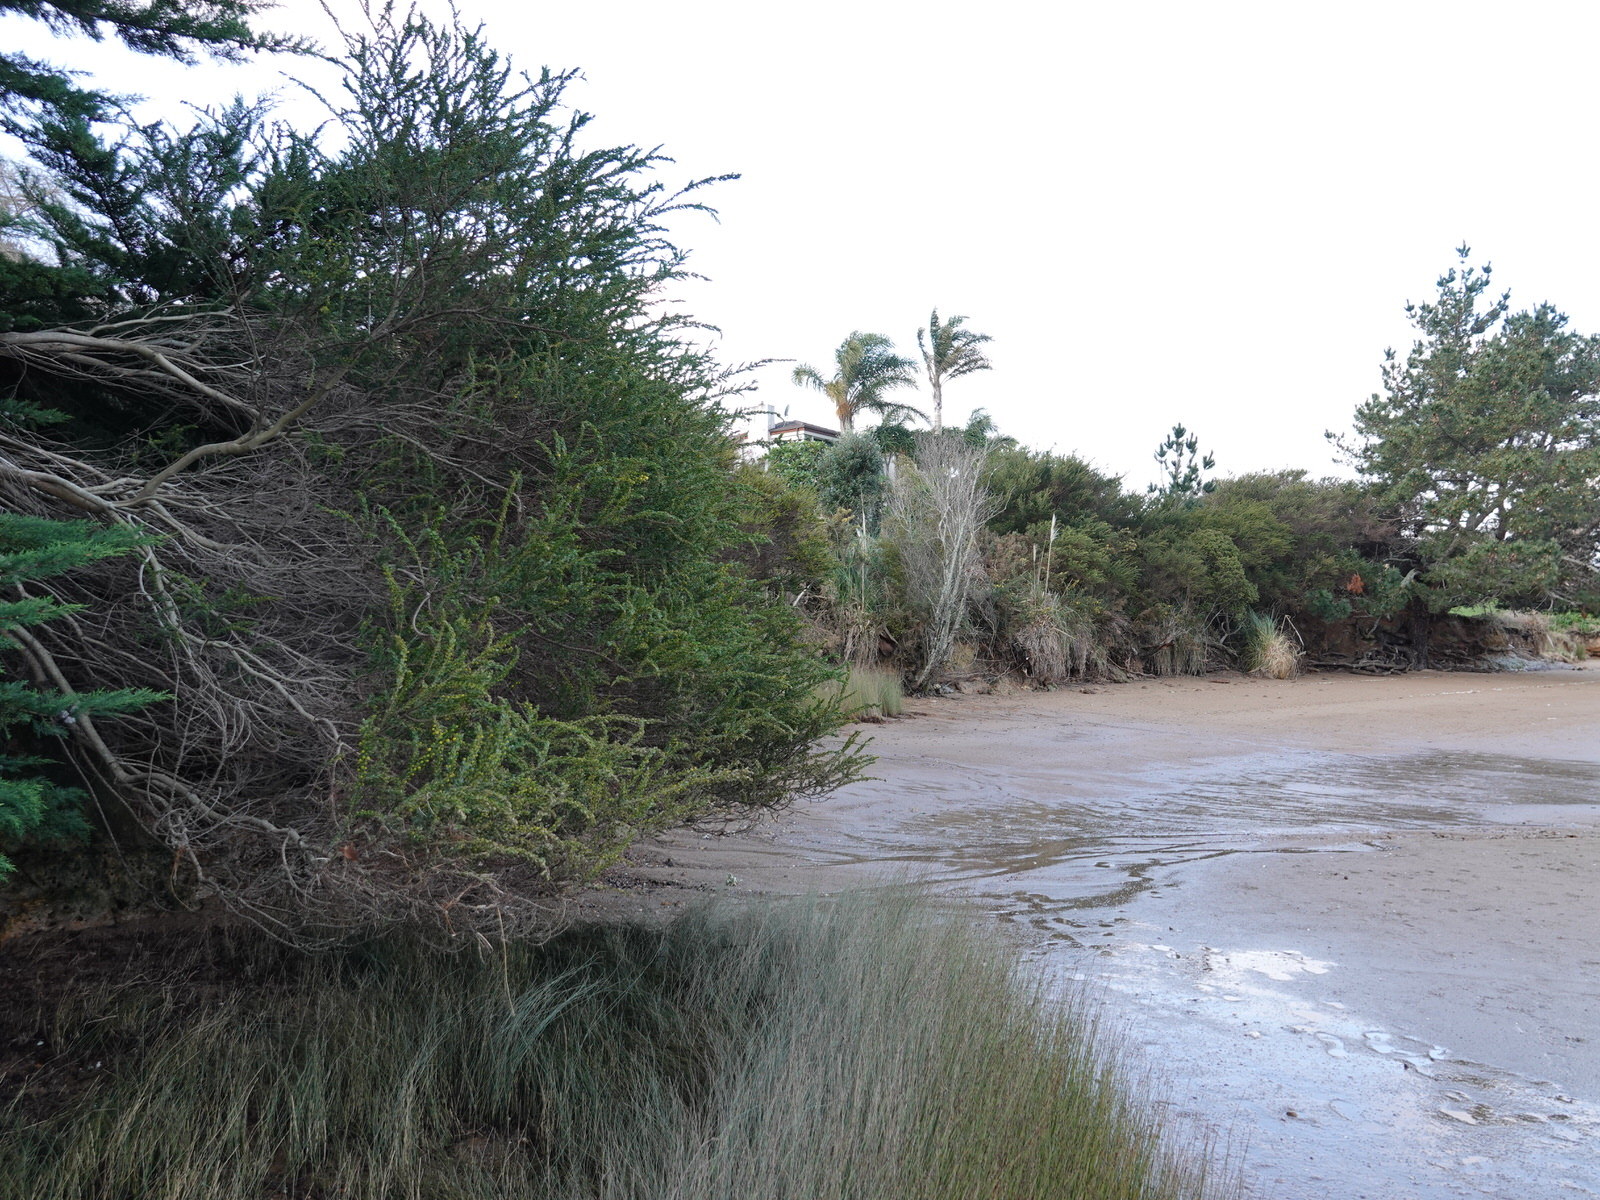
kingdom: Plantae
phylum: Tracheophyta
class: Magnoliopsida
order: Fabales
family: Fabaceae
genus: Acacia
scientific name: Acacia paradoxa
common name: Paradox acacia
